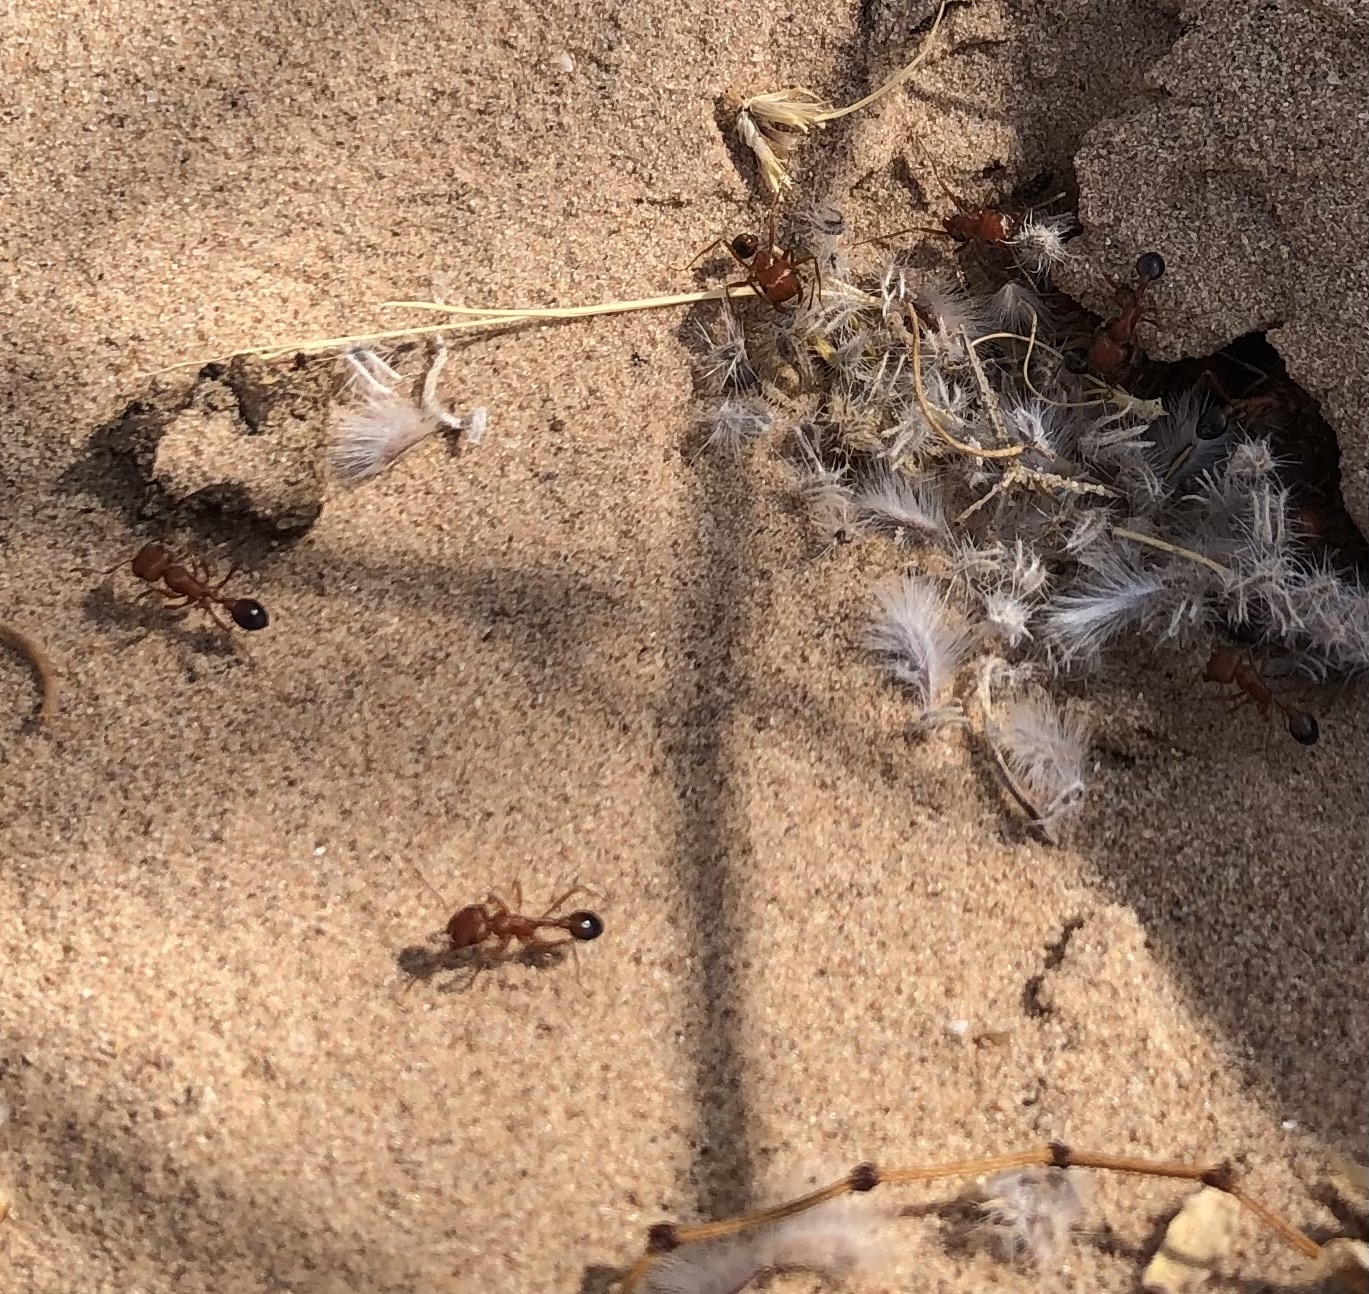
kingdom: Animalia
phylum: Arthropoda
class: Insecta
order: Hymenoptera
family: Formicidae
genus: Pogonomyrmex
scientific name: Pogonomyrmex californicus
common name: California harvester ant
